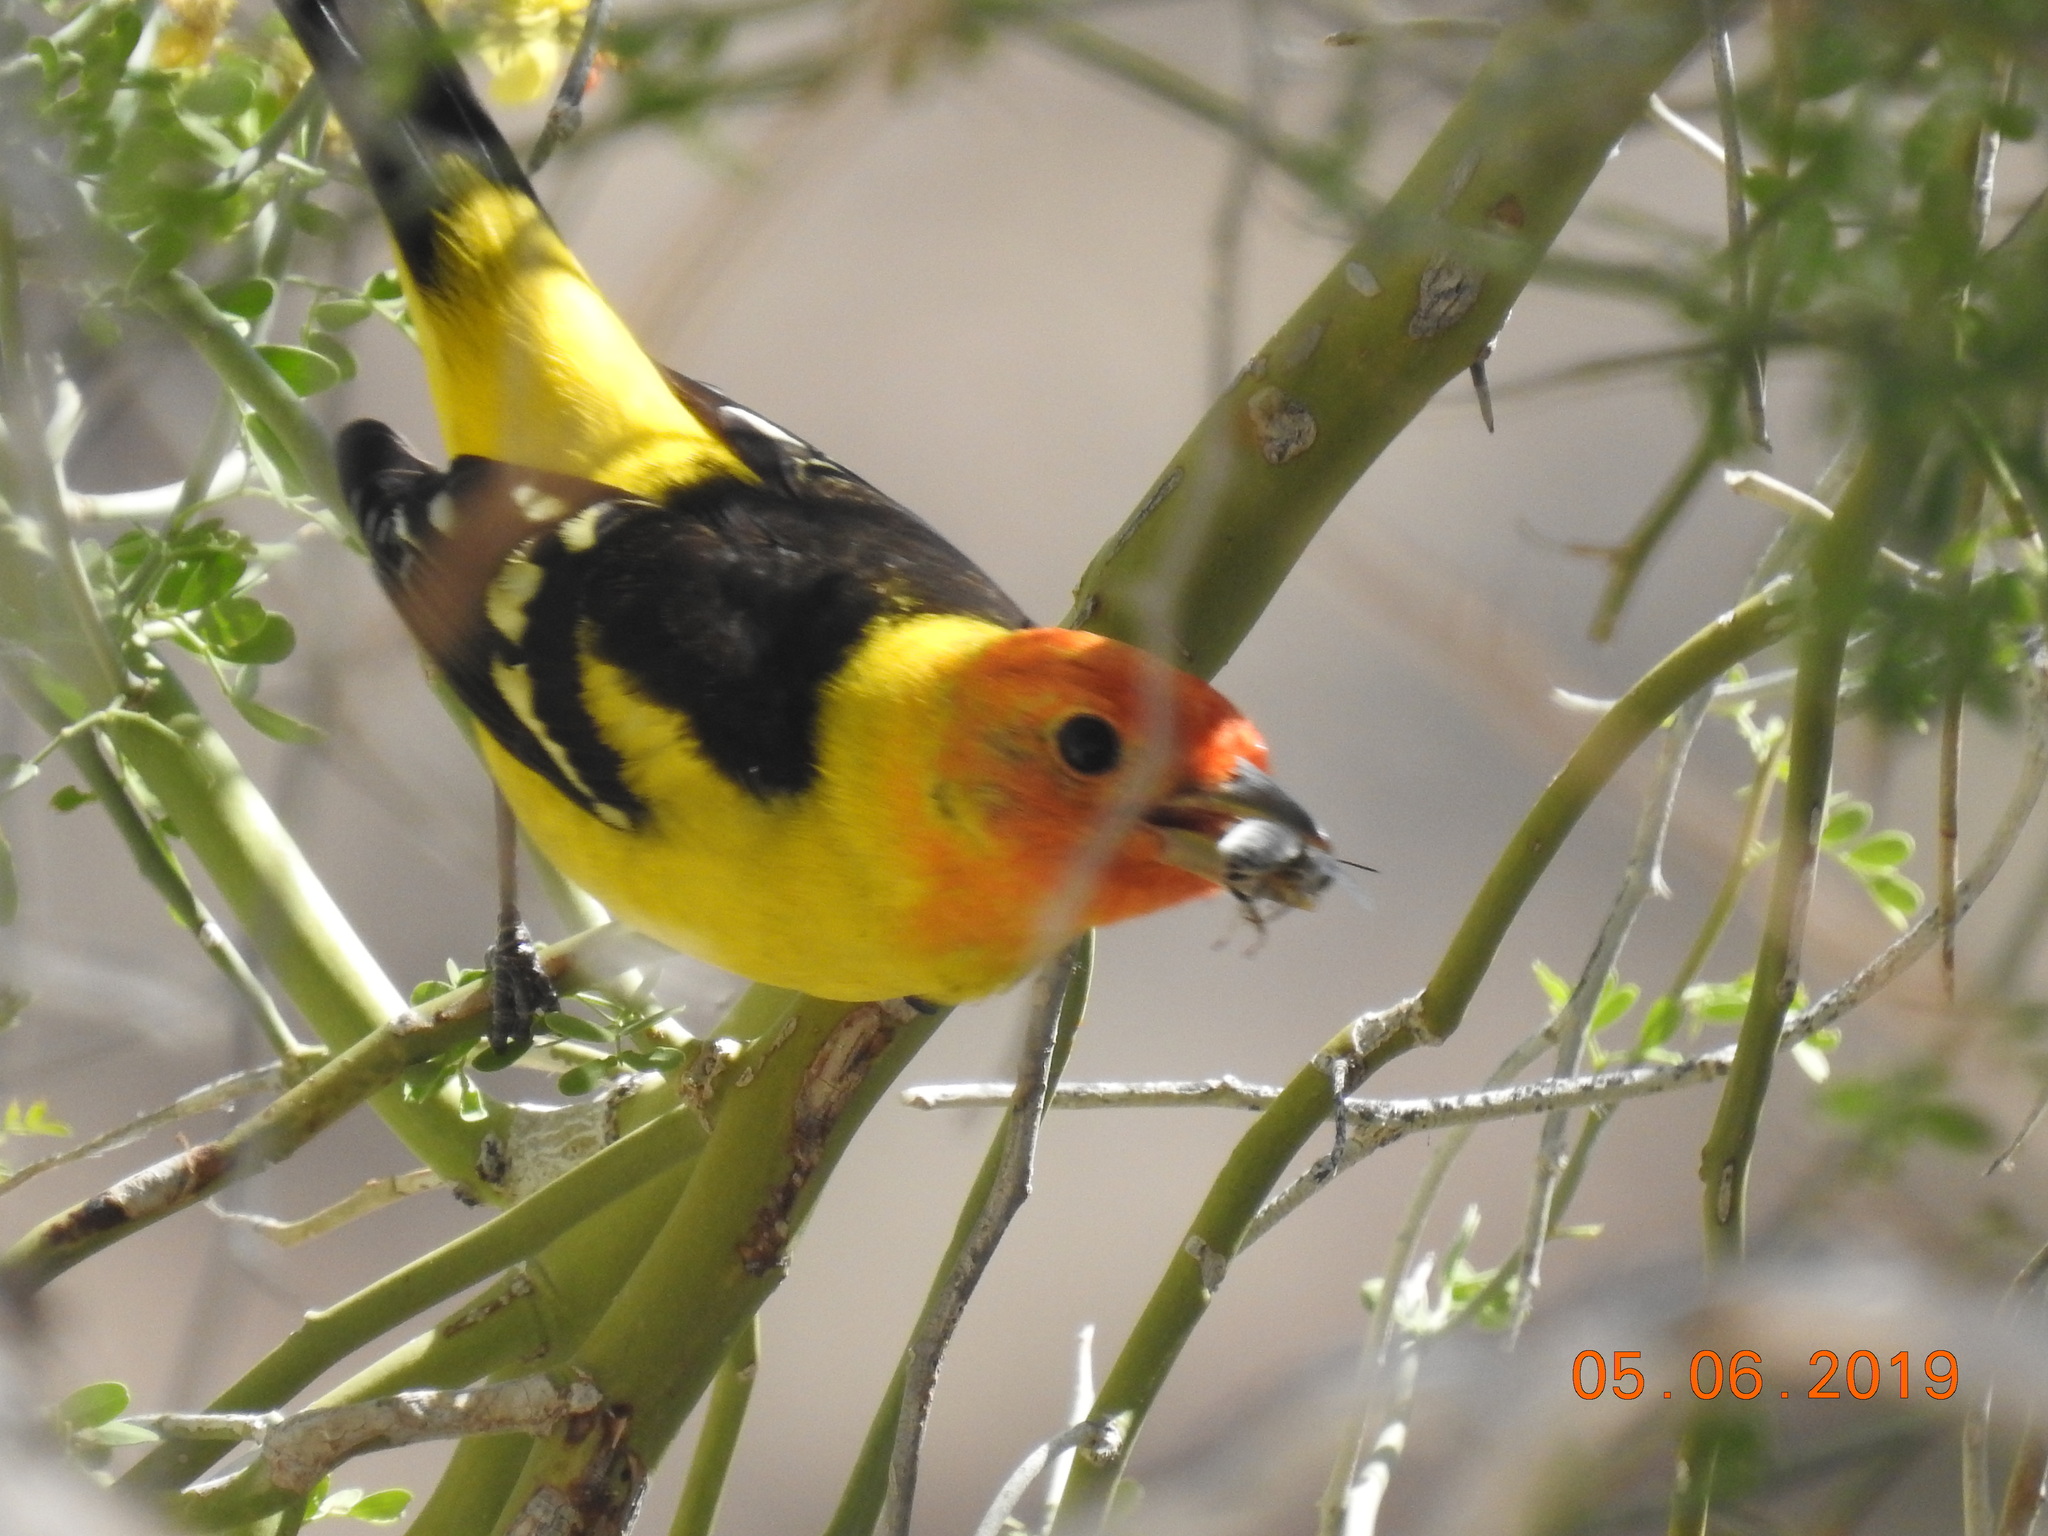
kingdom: Animalia
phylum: Chordata
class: Aves
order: Passeriformes
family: Cardinalidae
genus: Piranga
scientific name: Piranga ludoviciana
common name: Western tanager
